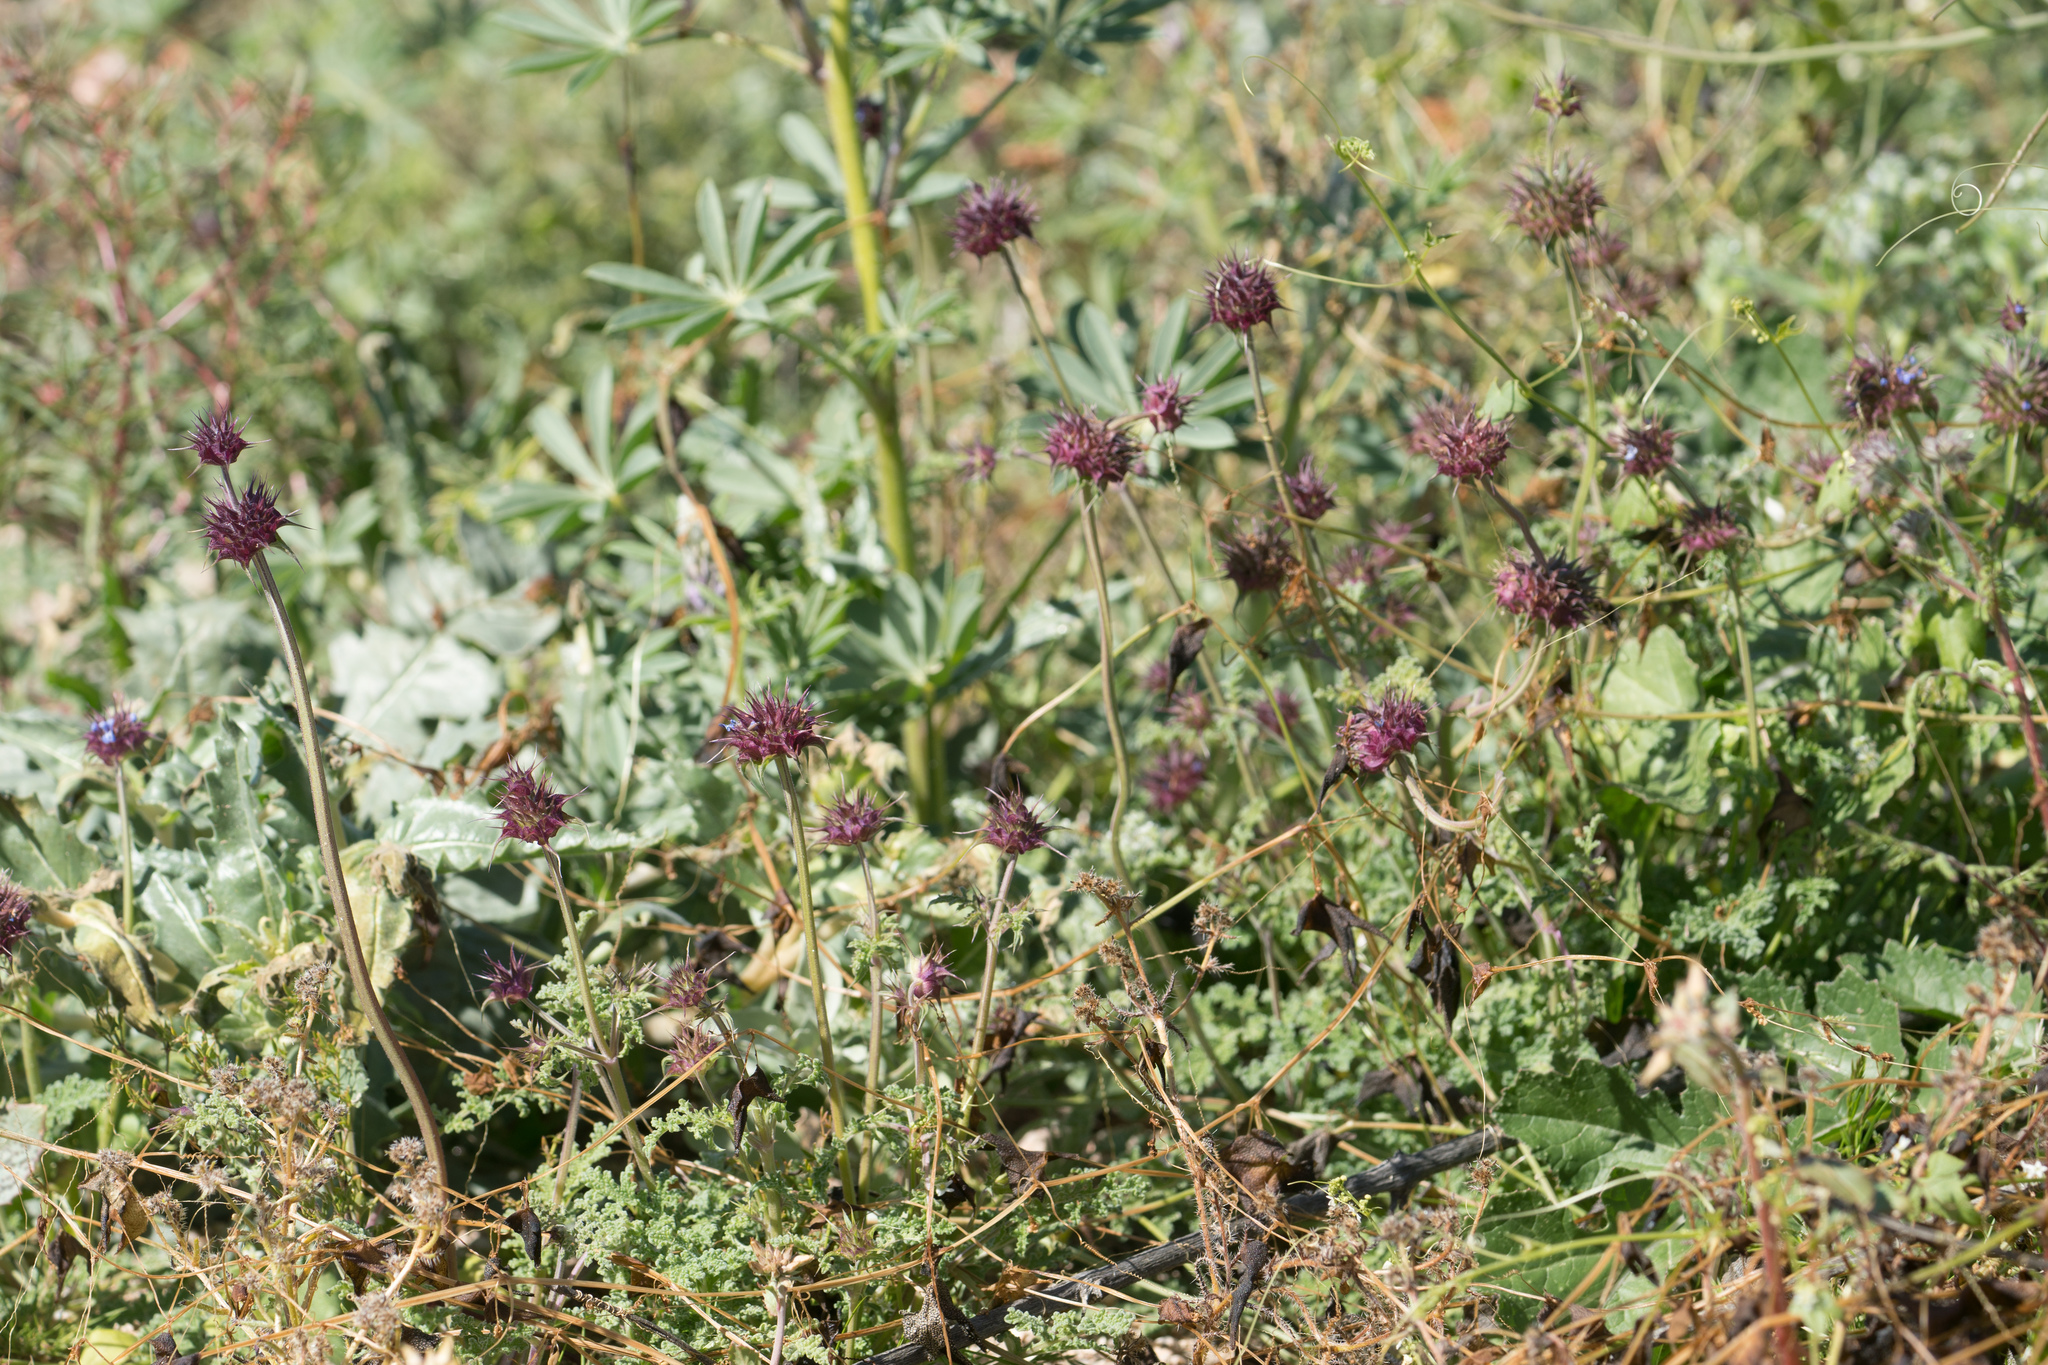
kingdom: Plantae
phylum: Tracheophyta
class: Magnoliopsida
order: Lamiales
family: Lamiaceae
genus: Salvia
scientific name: Salvia columbariae
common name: Chia
